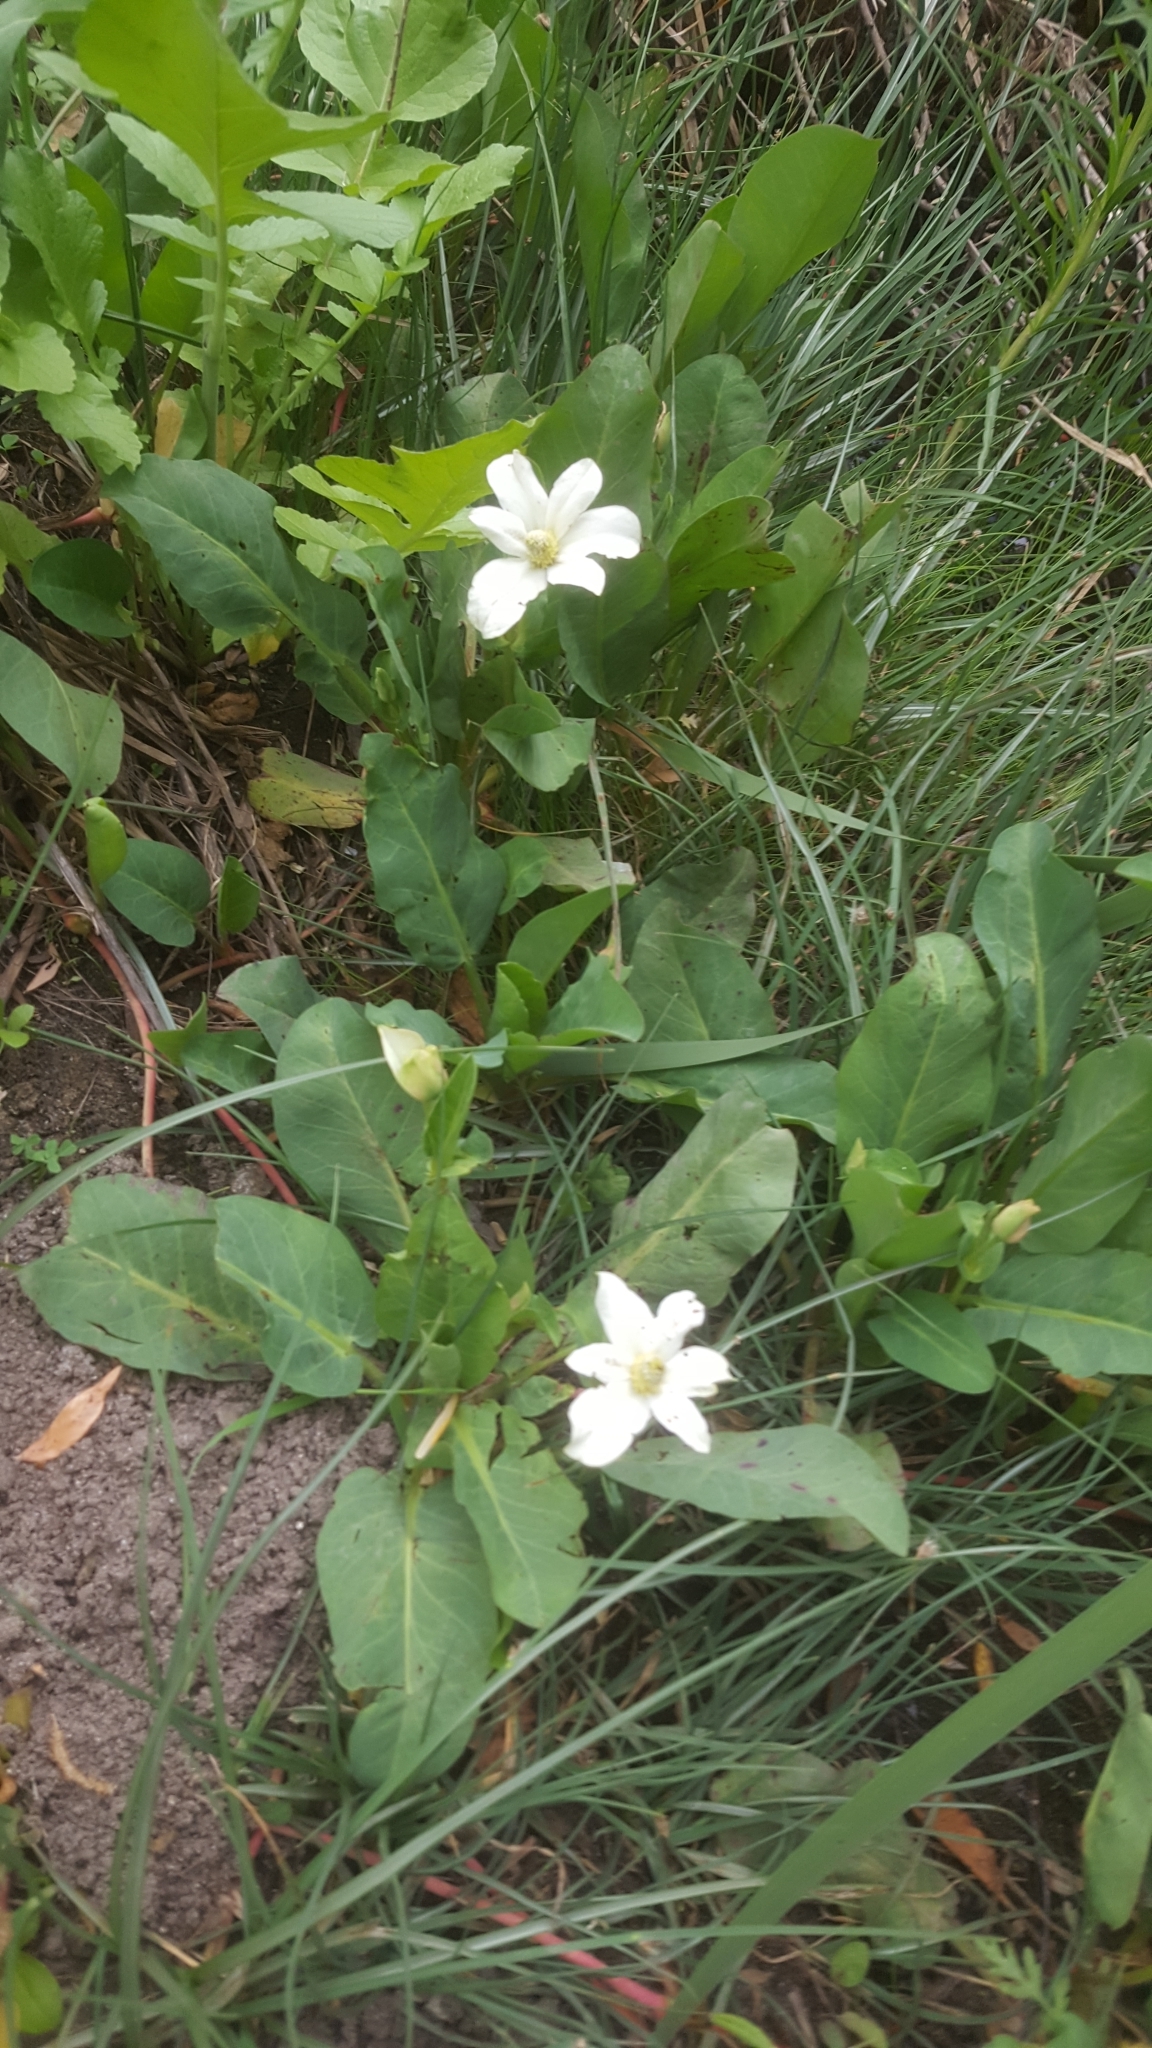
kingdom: Plantae
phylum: Tracheophyta
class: Magnoliopsida
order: Piperales
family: Saururaceae
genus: Anemopsis
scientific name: Anemopsis californica
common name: Apache-beads
